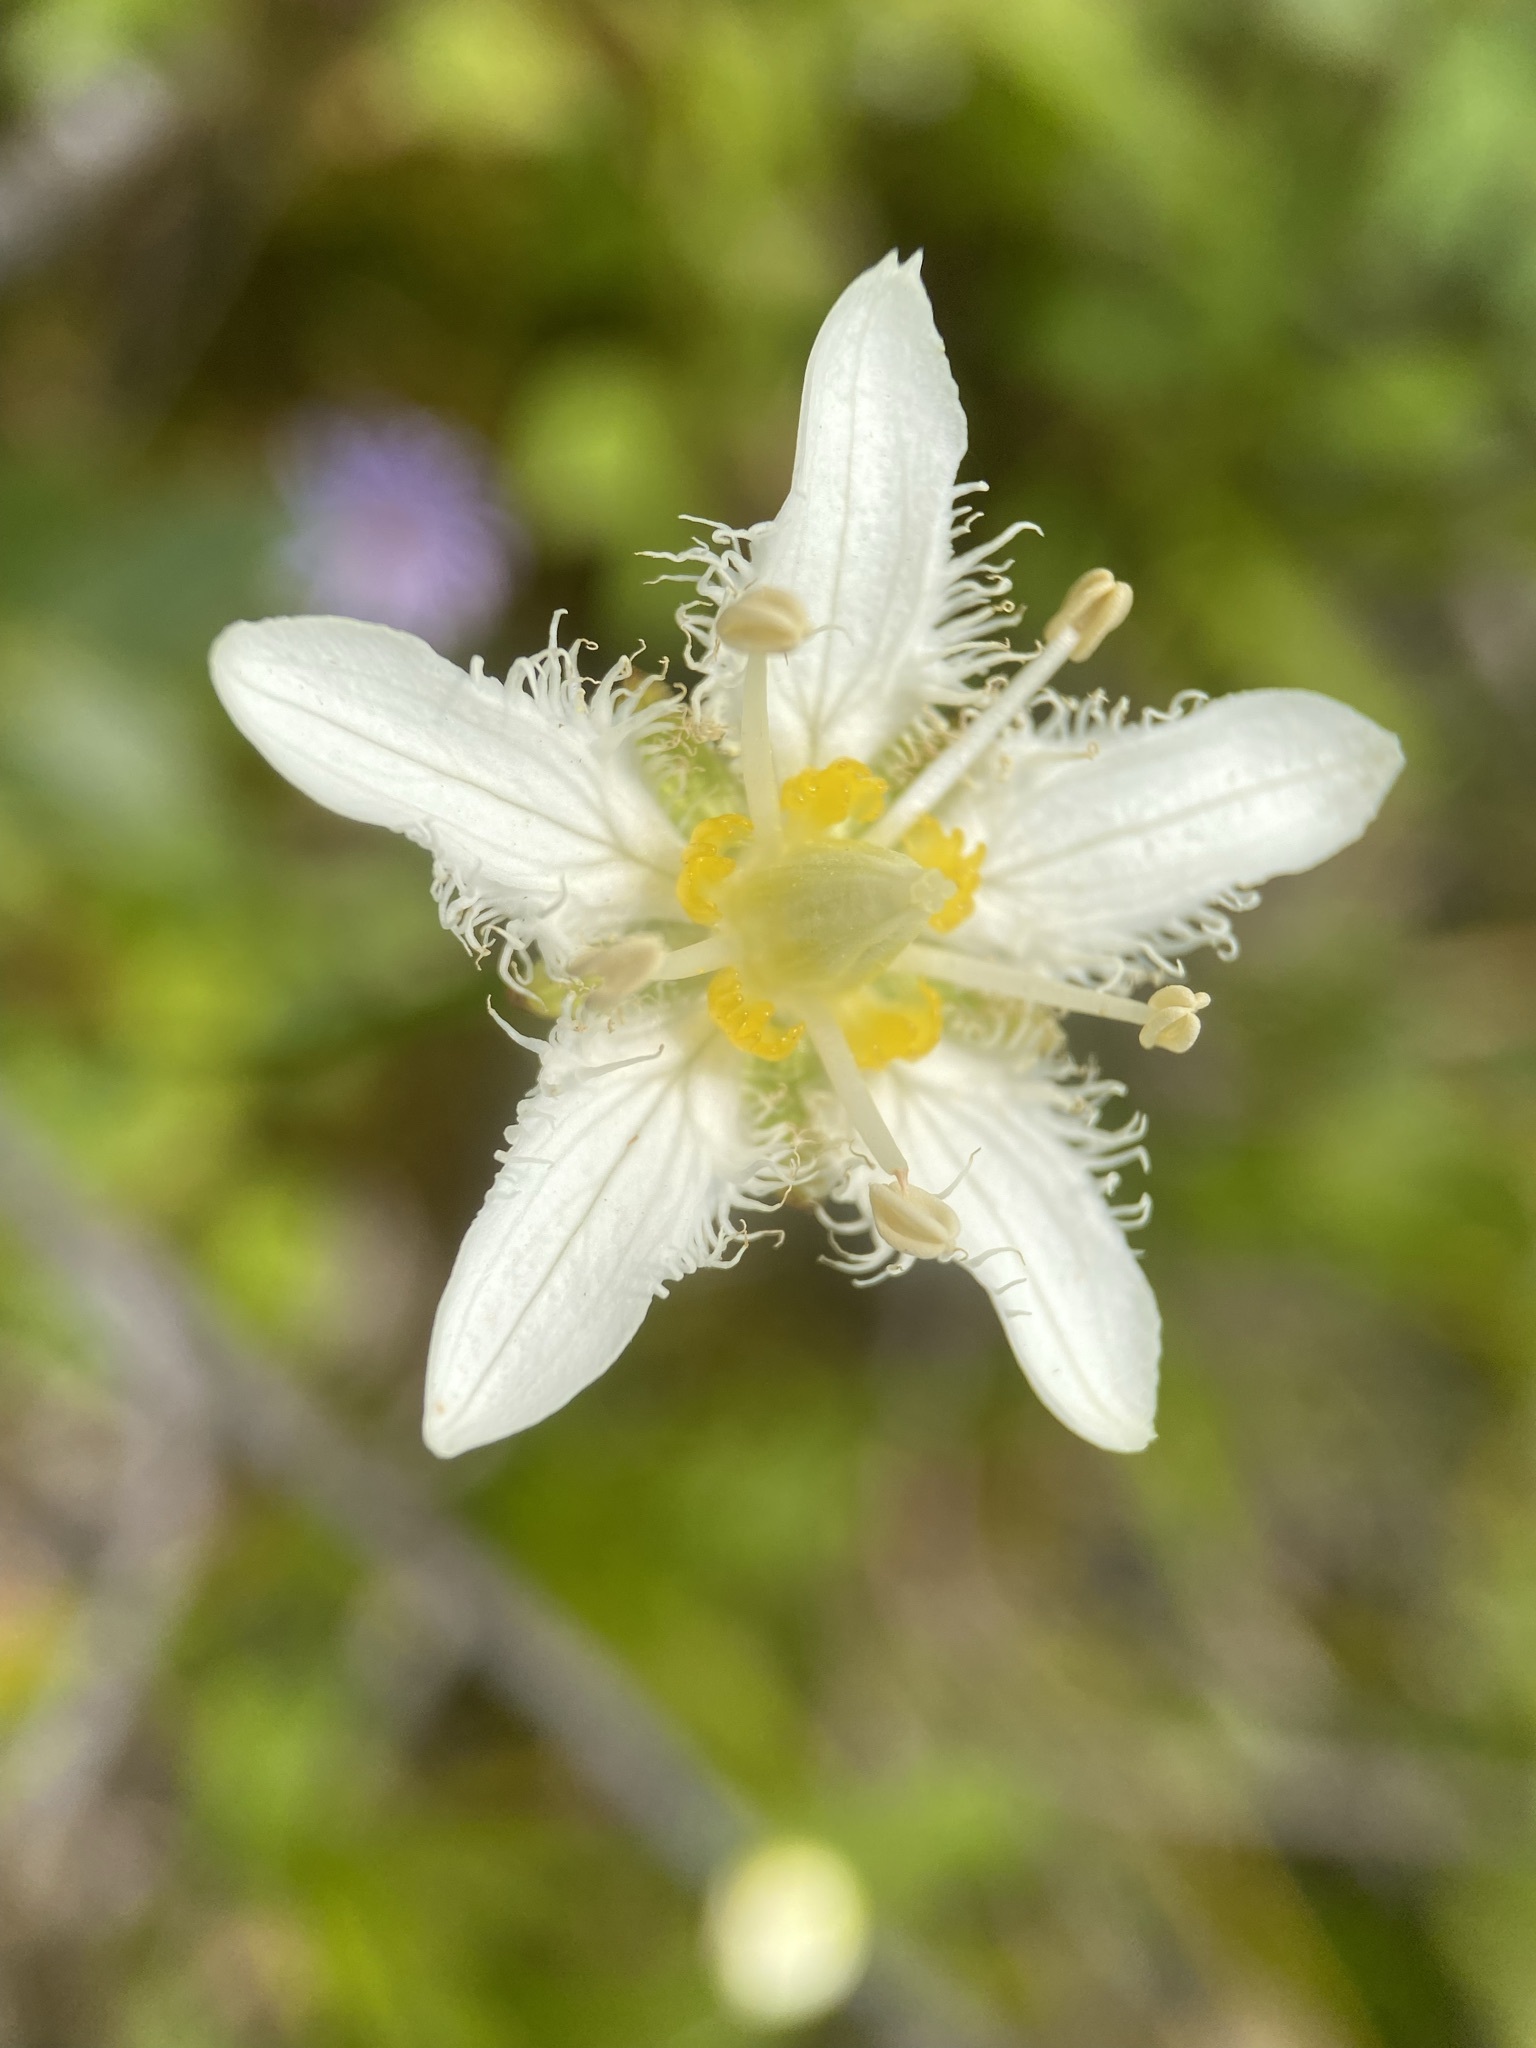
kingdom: Plantae
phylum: Tracheophyta
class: Magnoliopsida
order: Celastrales
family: Parnassiaceae
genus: Parnassia
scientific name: Parnassia fimbriata
